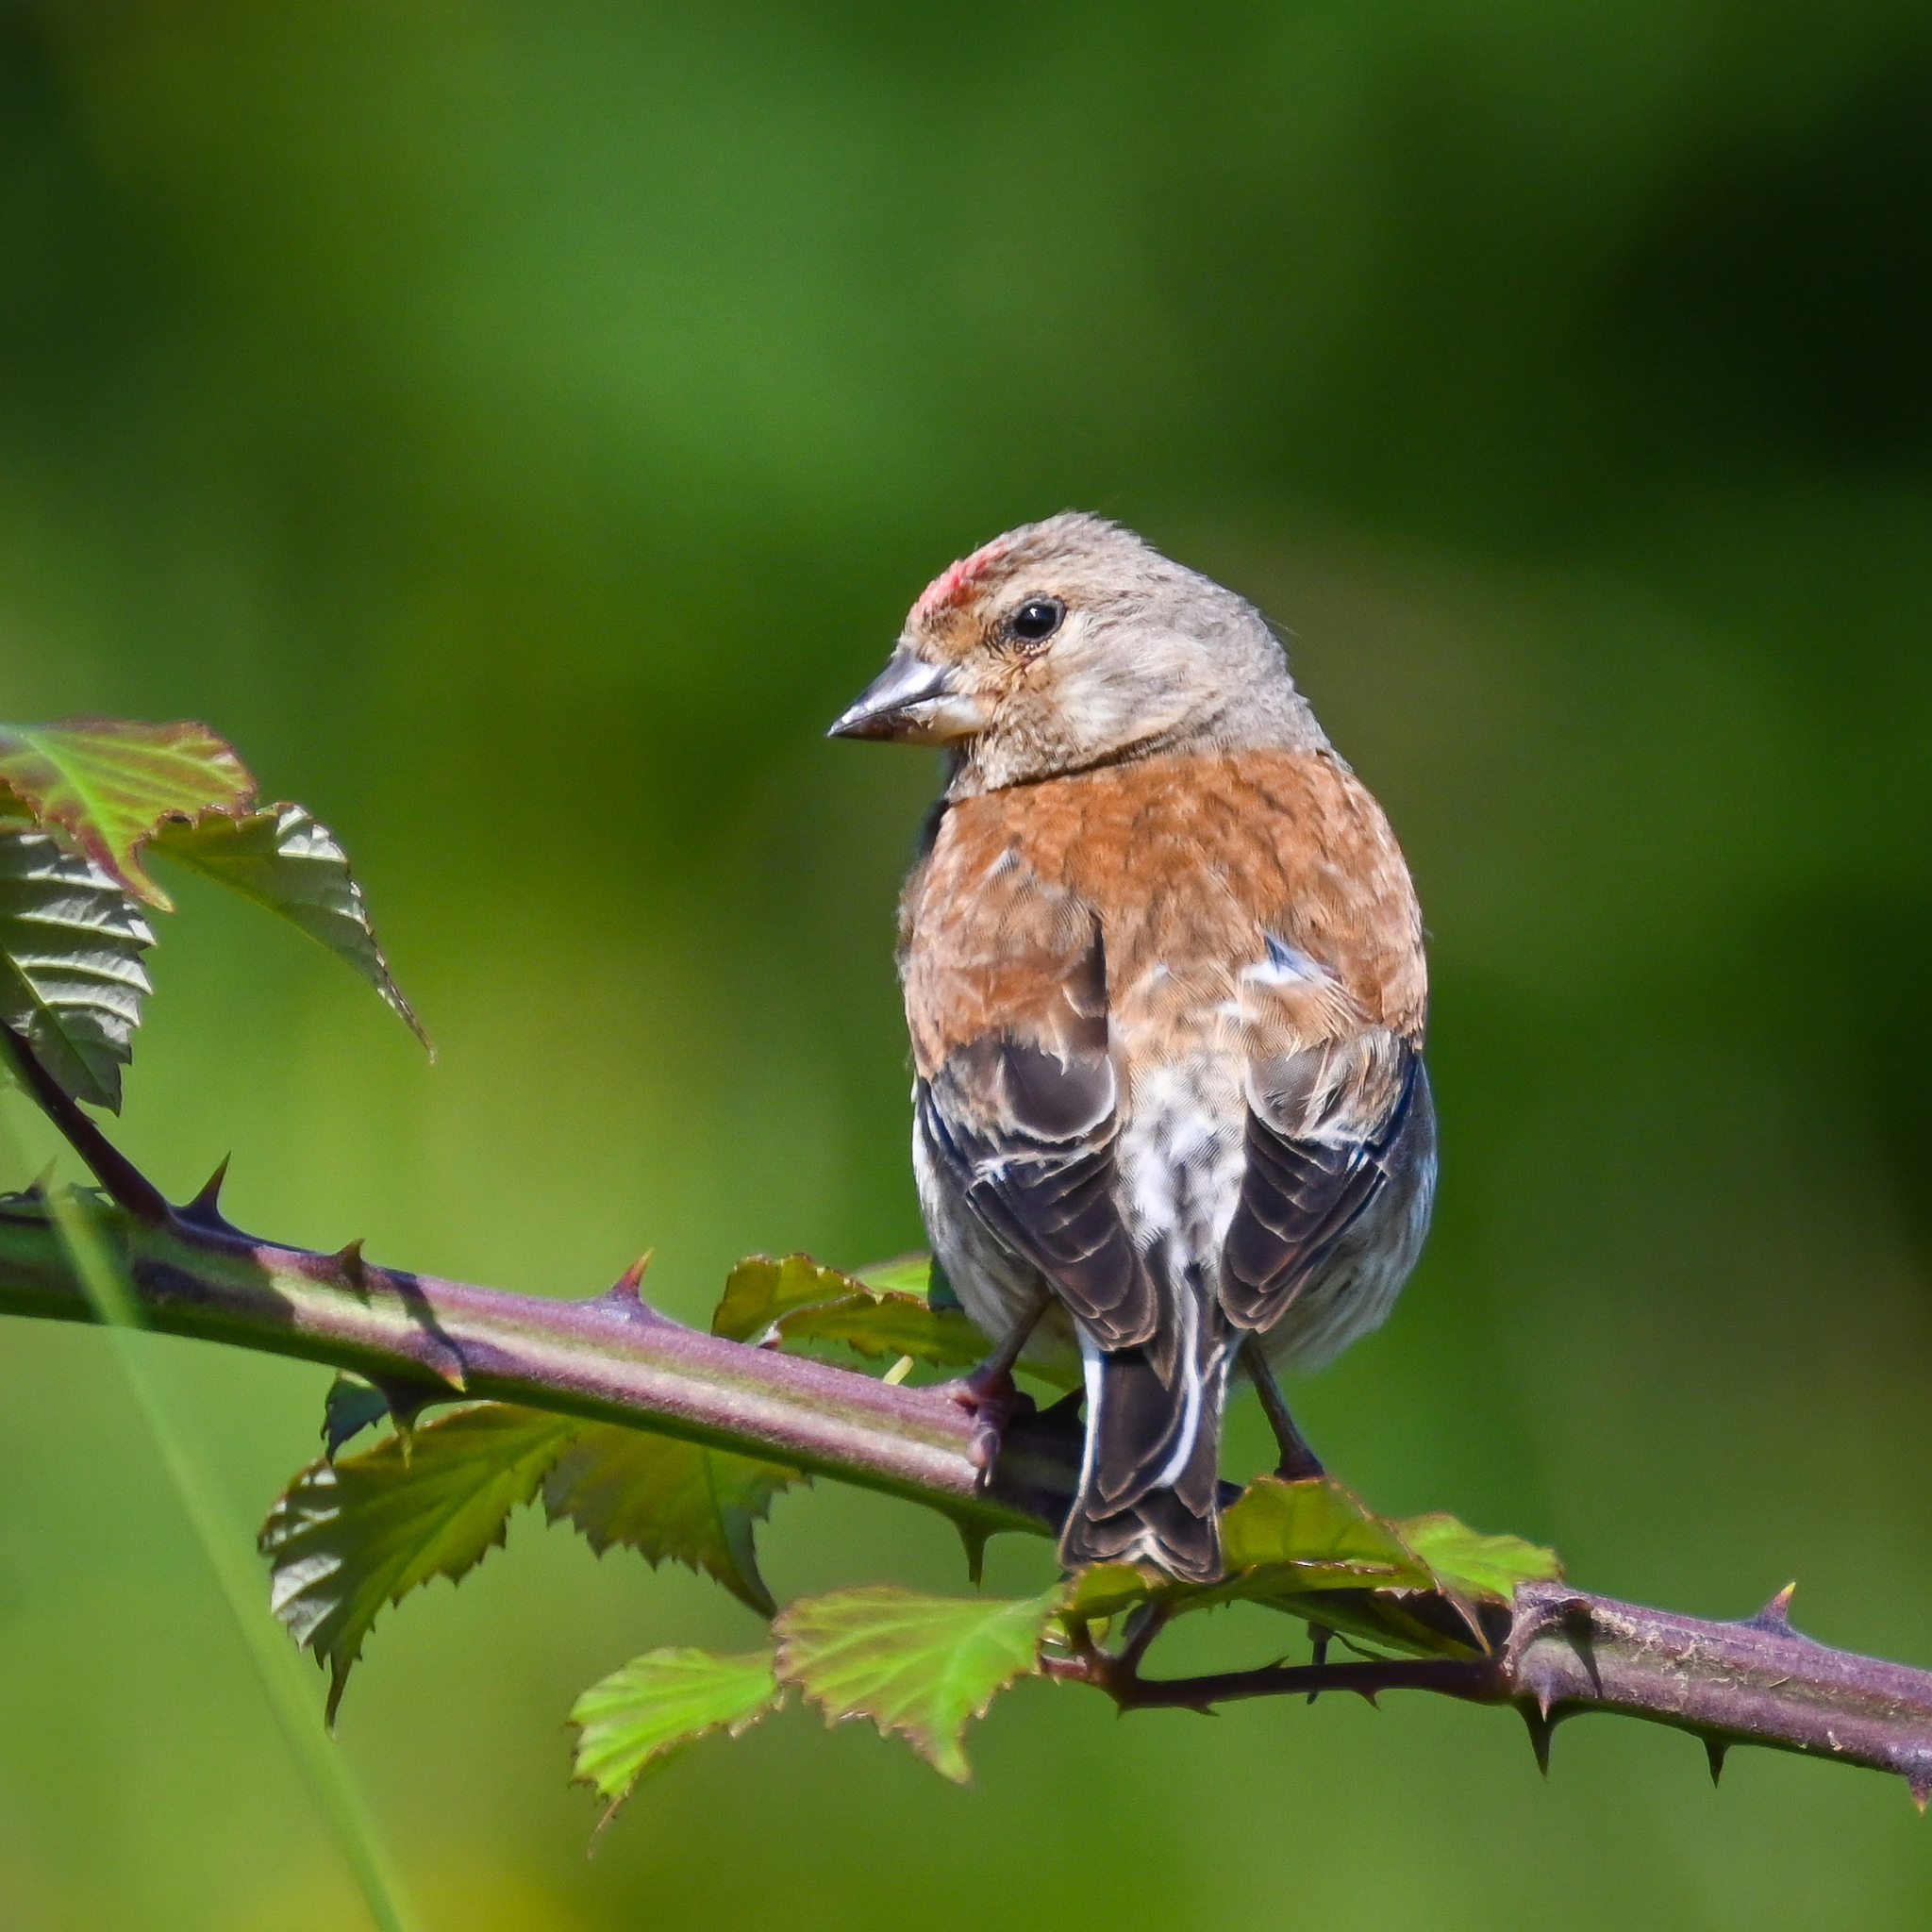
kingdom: Animalia
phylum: Chordata
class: Aves
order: Passeriformes
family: Fringillidae
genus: Linaria
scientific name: Linaria cannabina
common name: Common linnet
